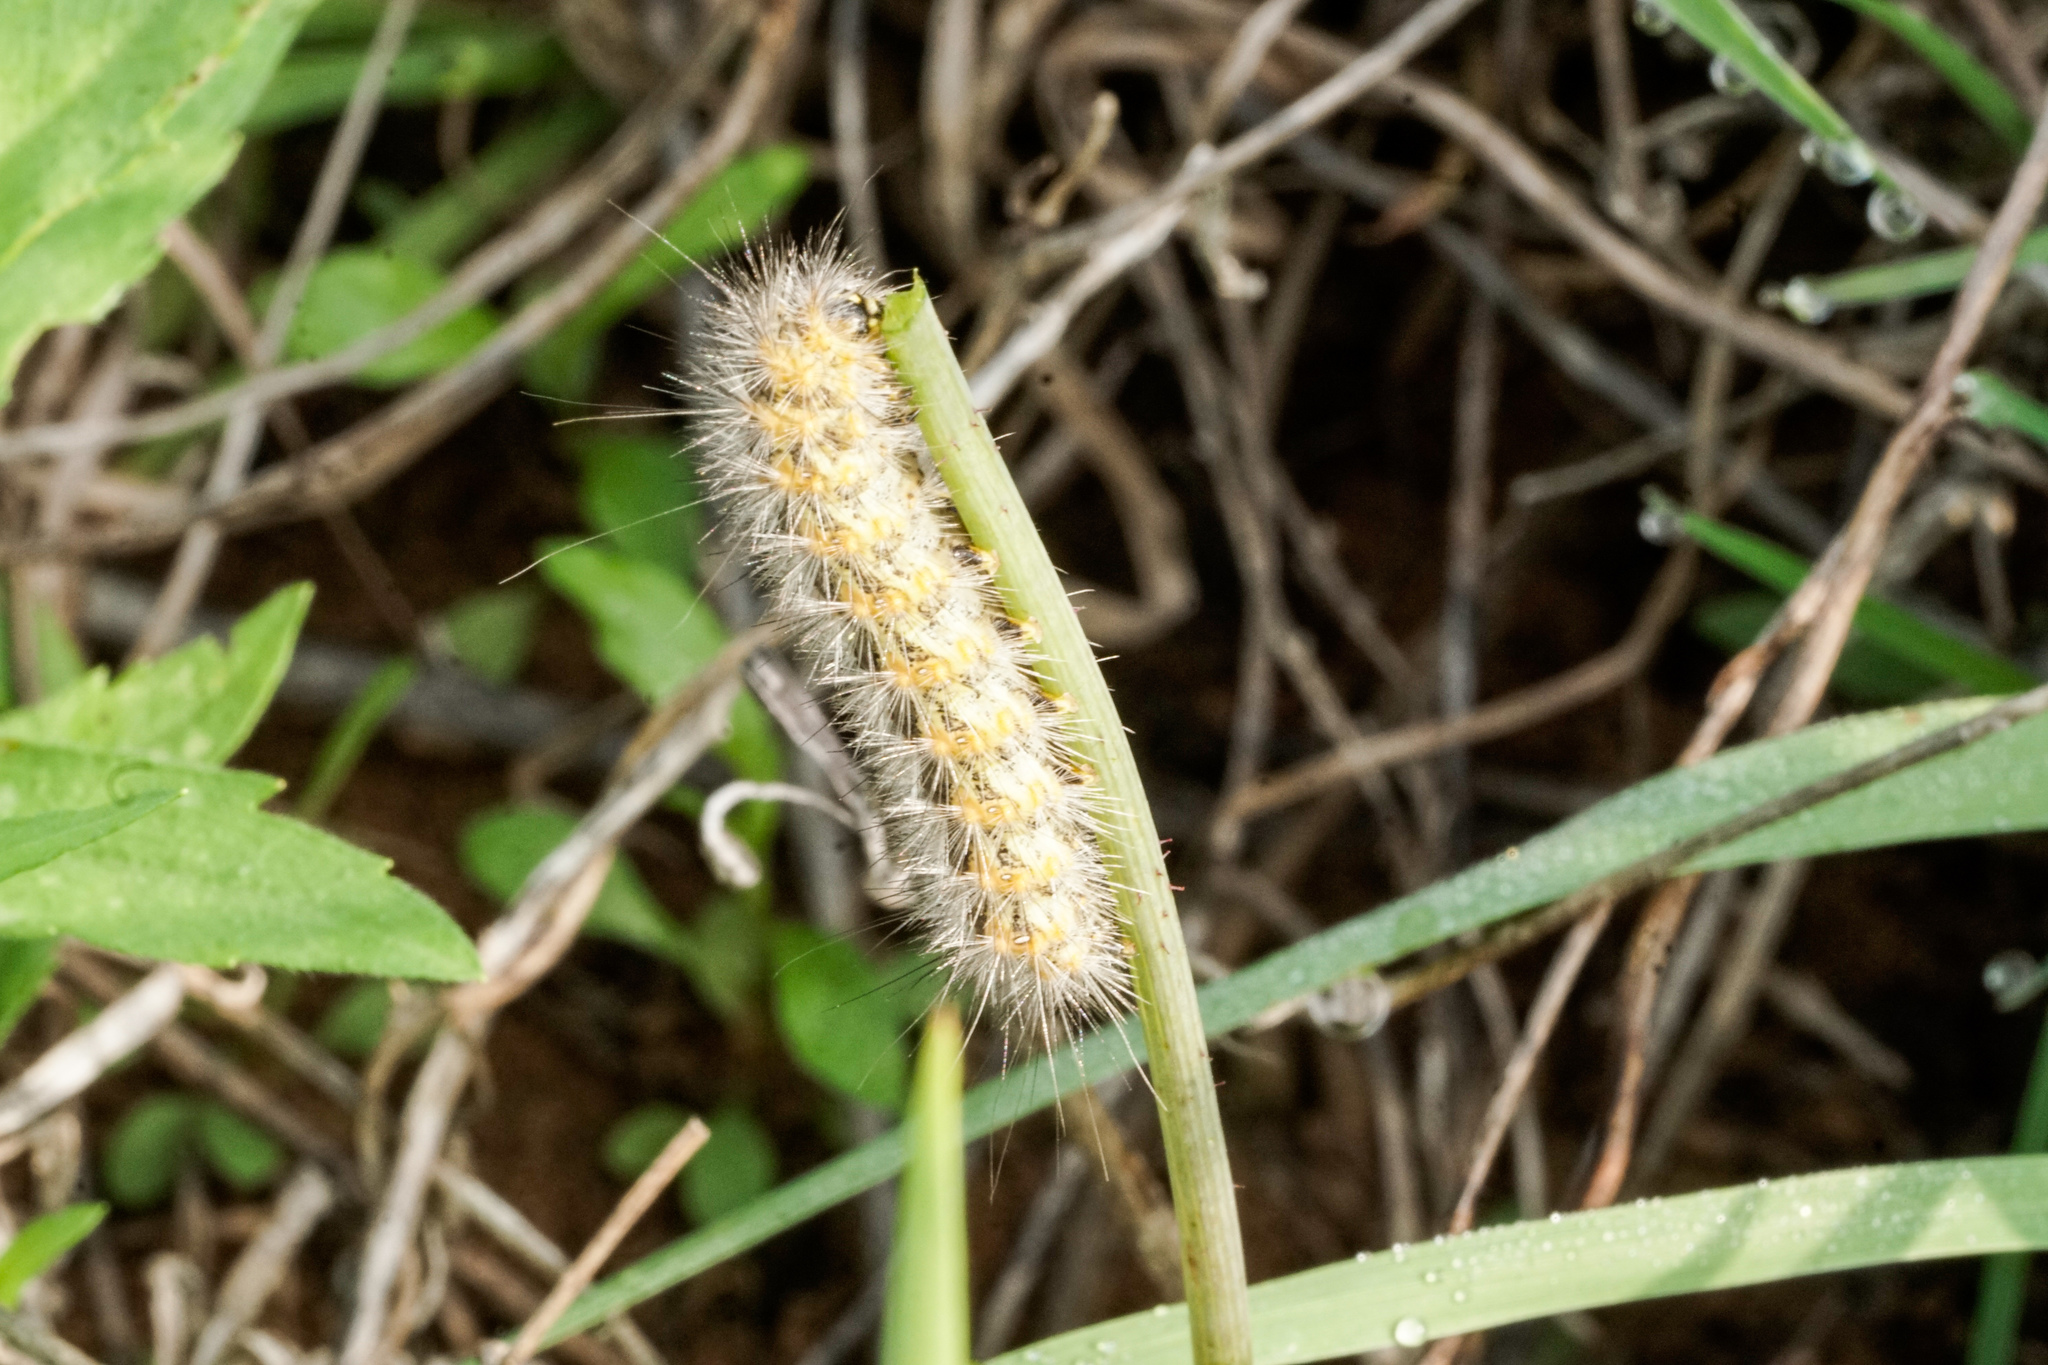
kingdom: Animalia
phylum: Arthropoda
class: Insecta
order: Lepidoptera
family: Erebidae
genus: Estigmene
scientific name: Estigmene acrea
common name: Salt marsh moth
